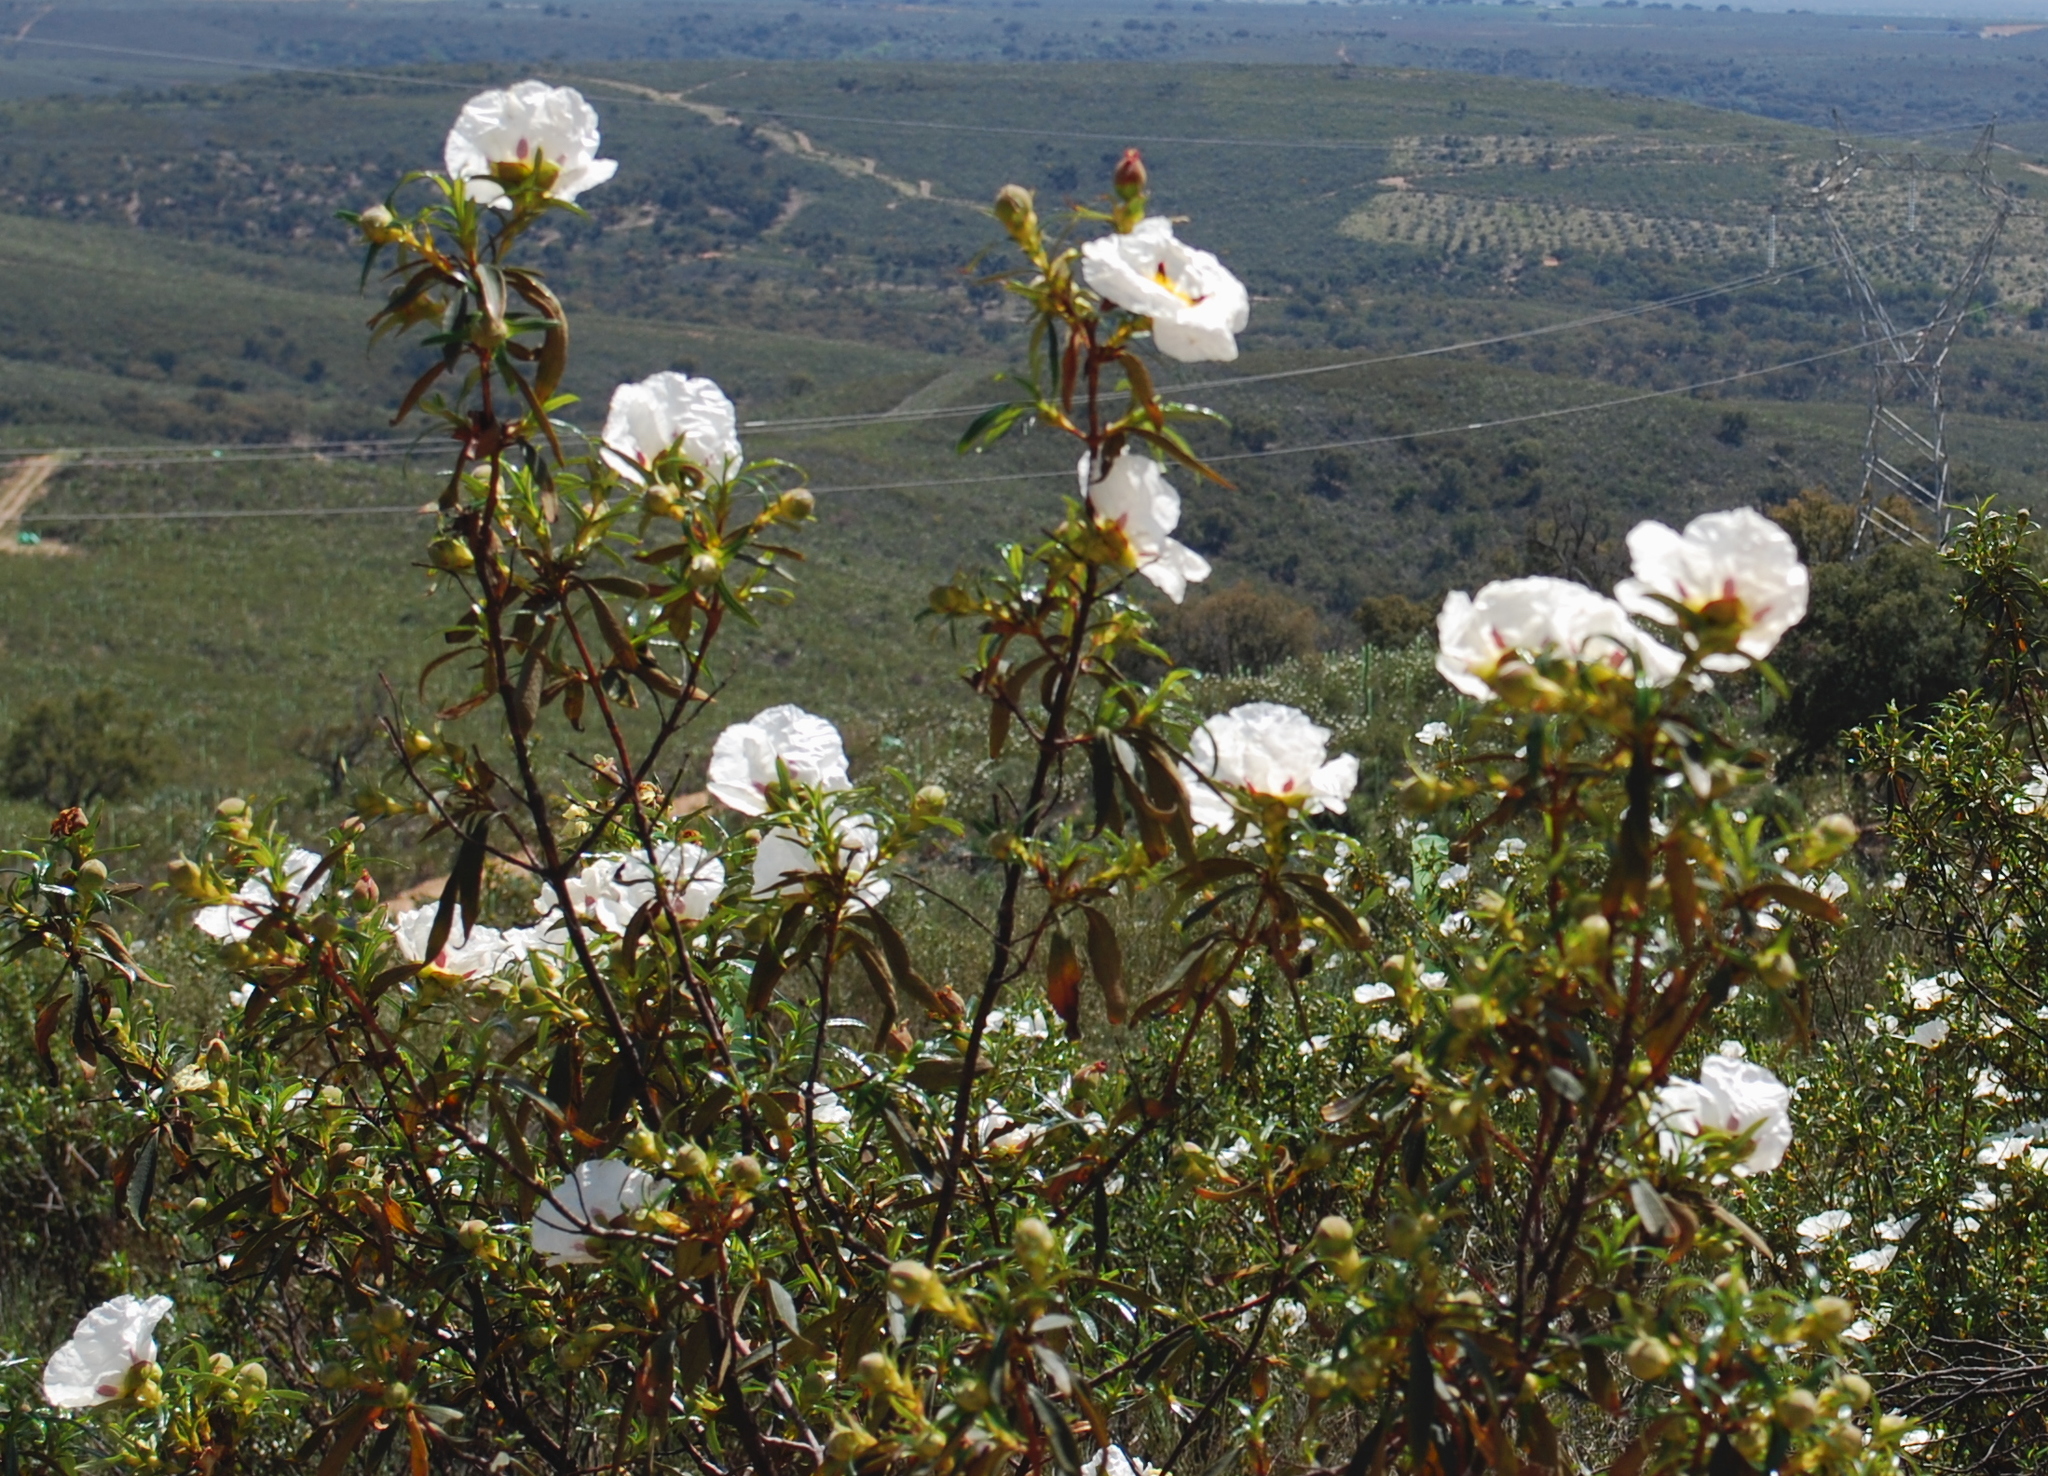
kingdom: Plantae
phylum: Tracheophyta
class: Magnoliopsida
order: Malvales
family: Cistaceae
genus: Cistus
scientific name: Cistus ladanifer
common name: Common gum cistus
